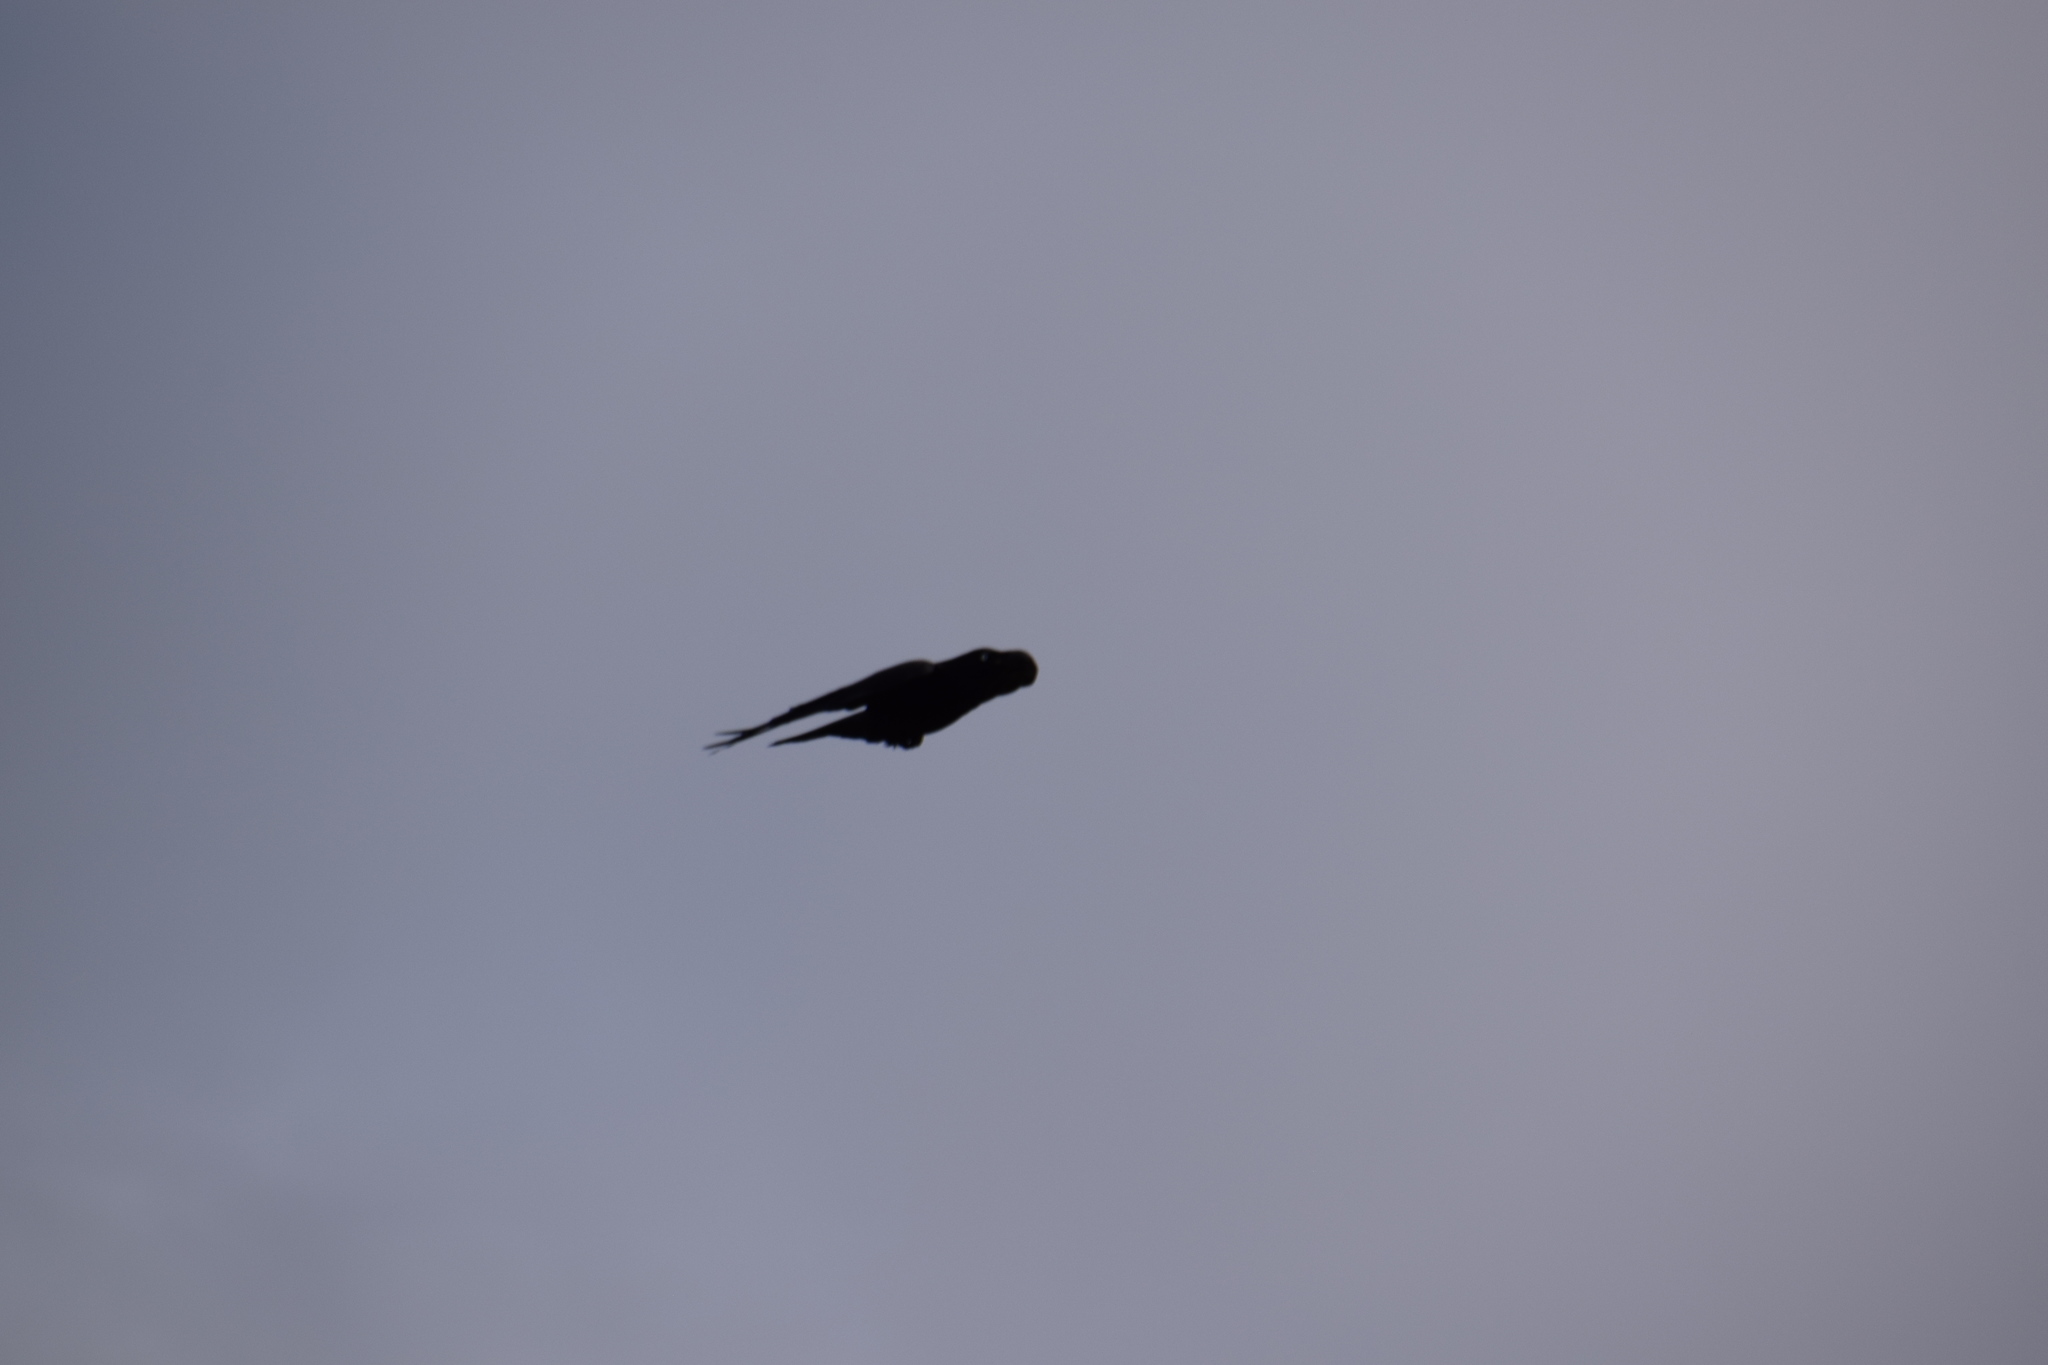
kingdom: Animalia
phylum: Chordata
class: Aves
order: Passeriformes
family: Corvidae
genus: Corvus
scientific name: Corvus coronoides
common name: Australian raven
